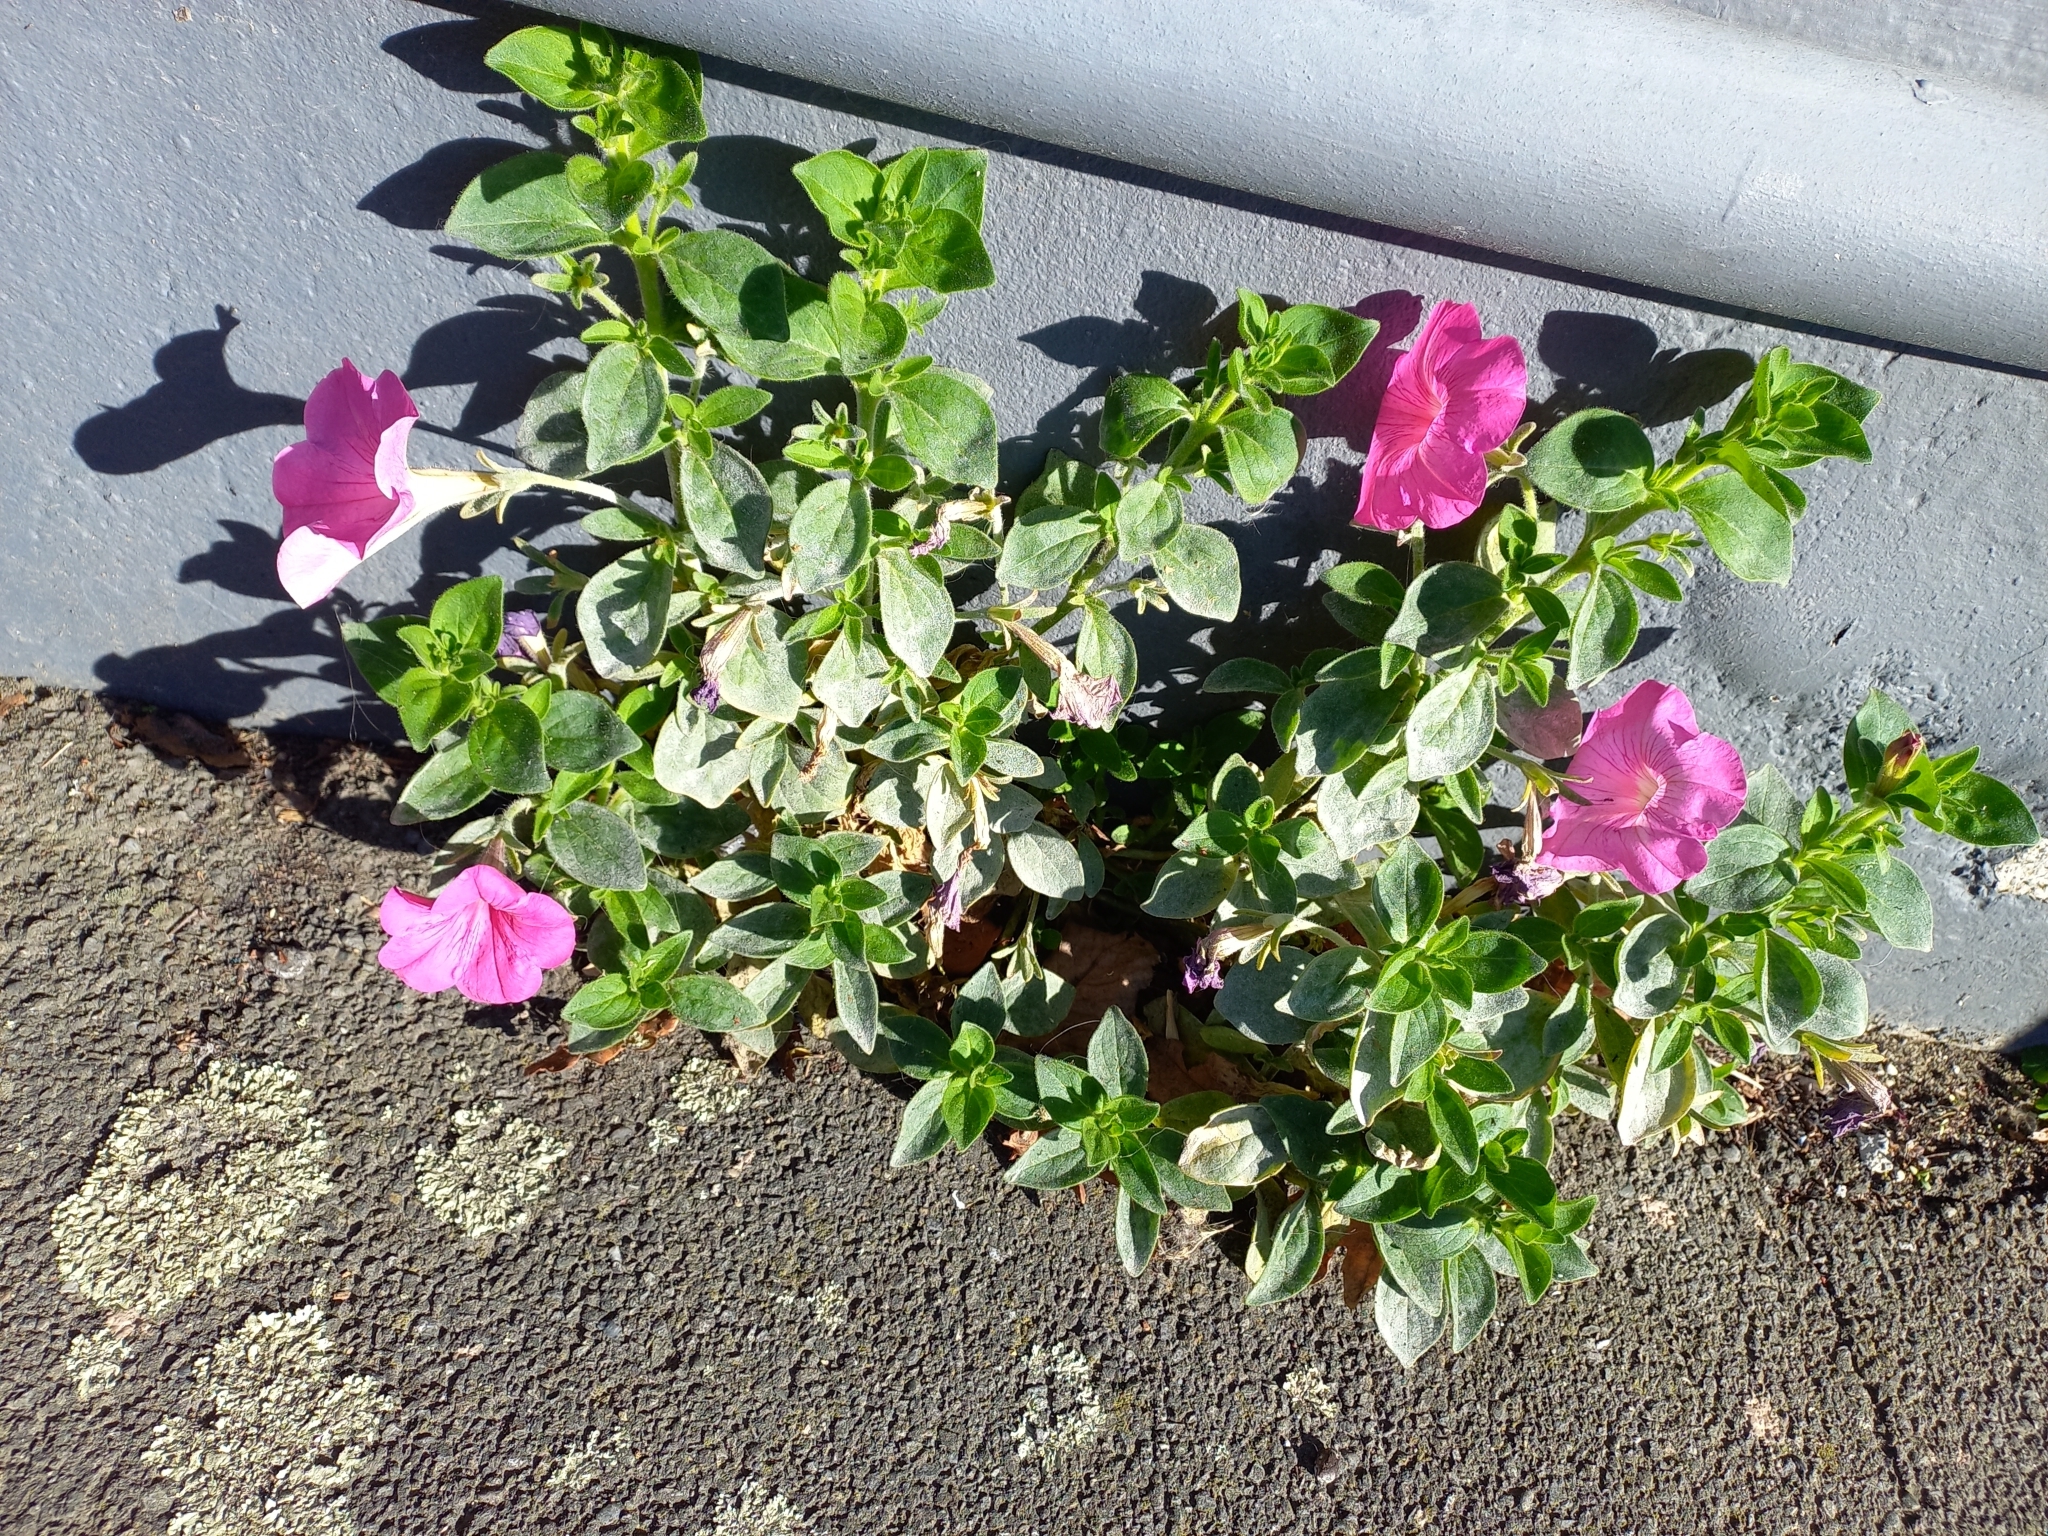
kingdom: Plantae
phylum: Tracheophyta
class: Magnoliopsida
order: Solanales
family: Solanaceae
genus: Petunia
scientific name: Petunia atkinsiana
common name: Petunia
